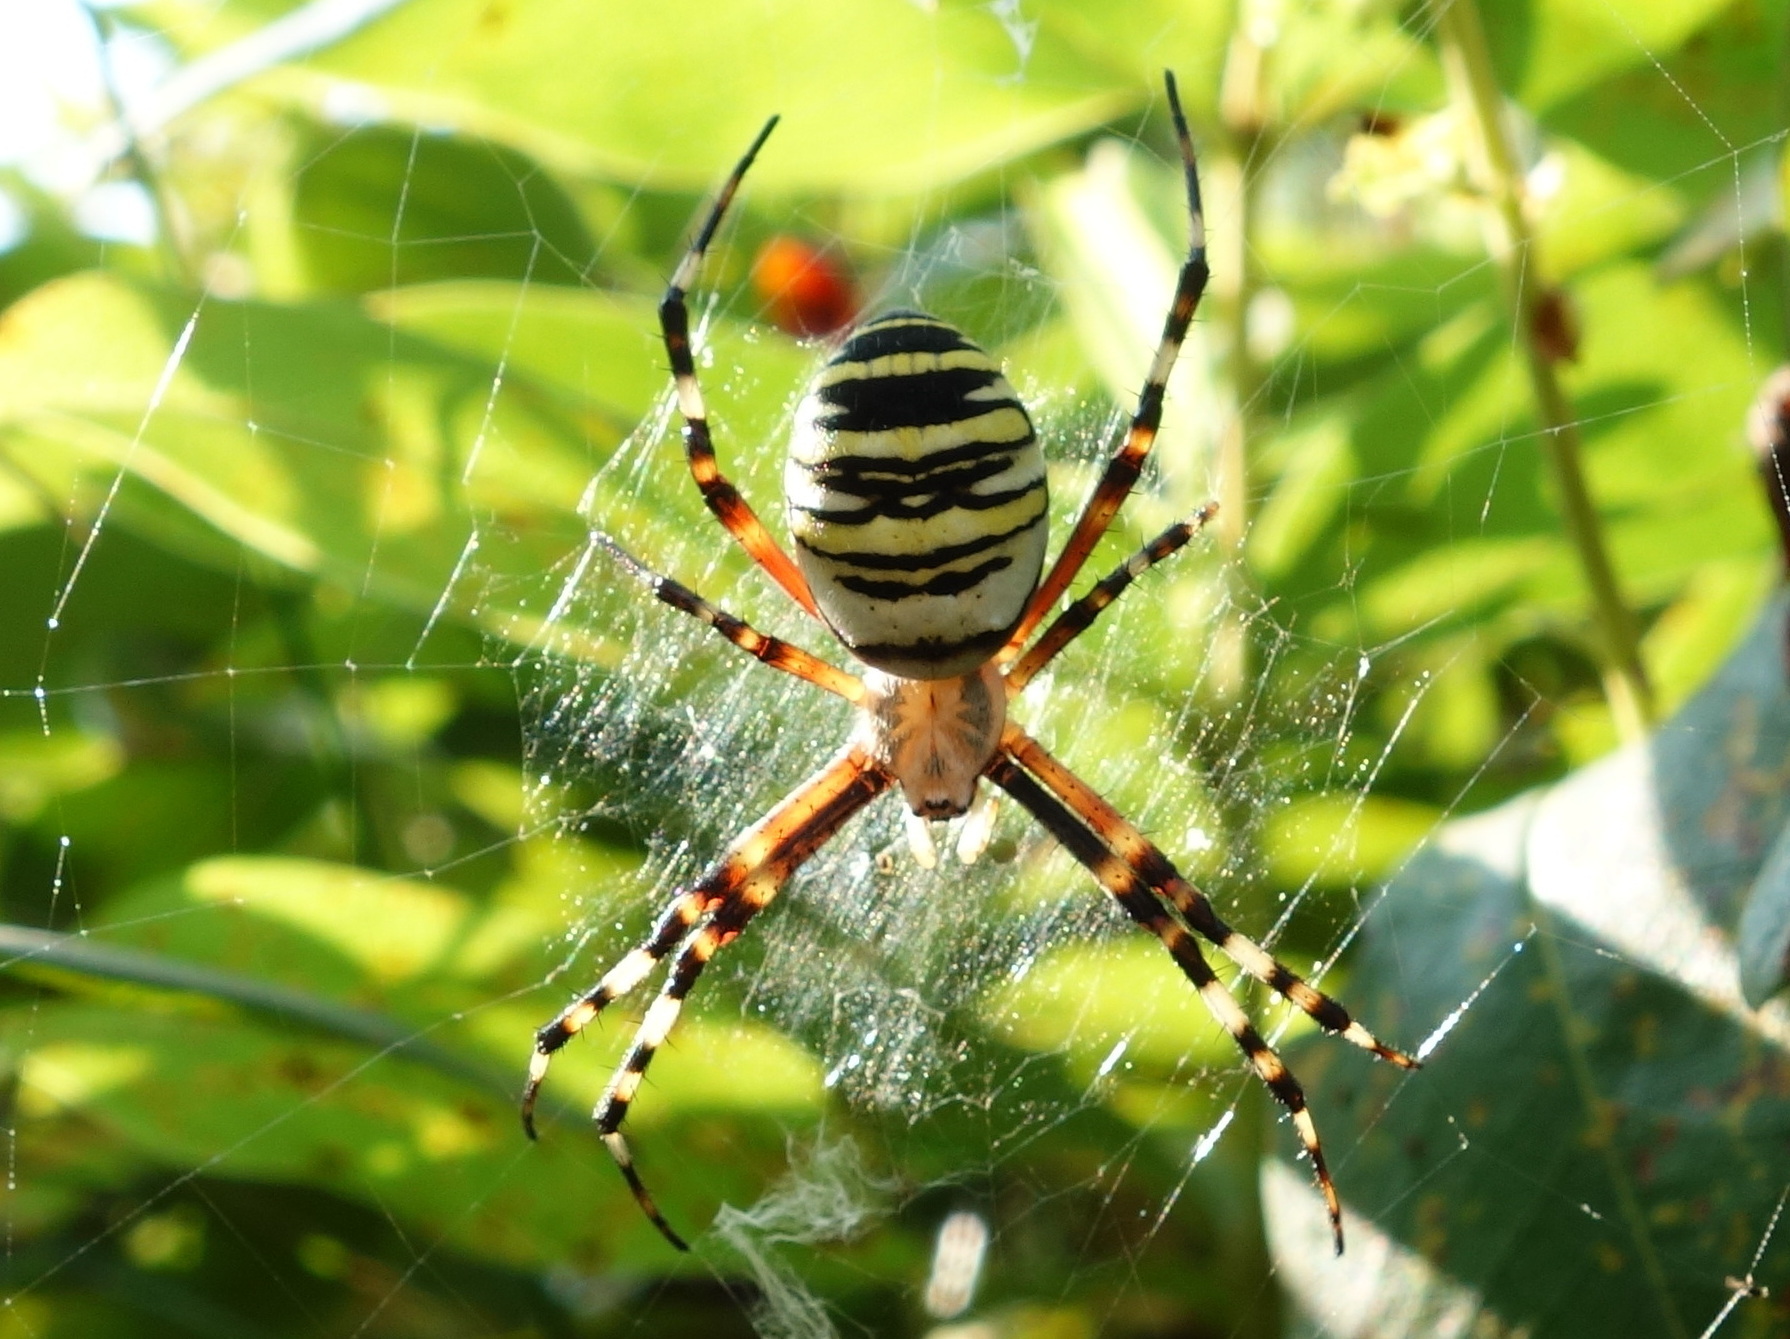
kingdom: Animalia
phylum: Arthropoda
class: Arachnida
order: Araneae
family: Araneidae
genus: Argiope
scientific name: Argiope bruennichi
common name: Wasp spider
